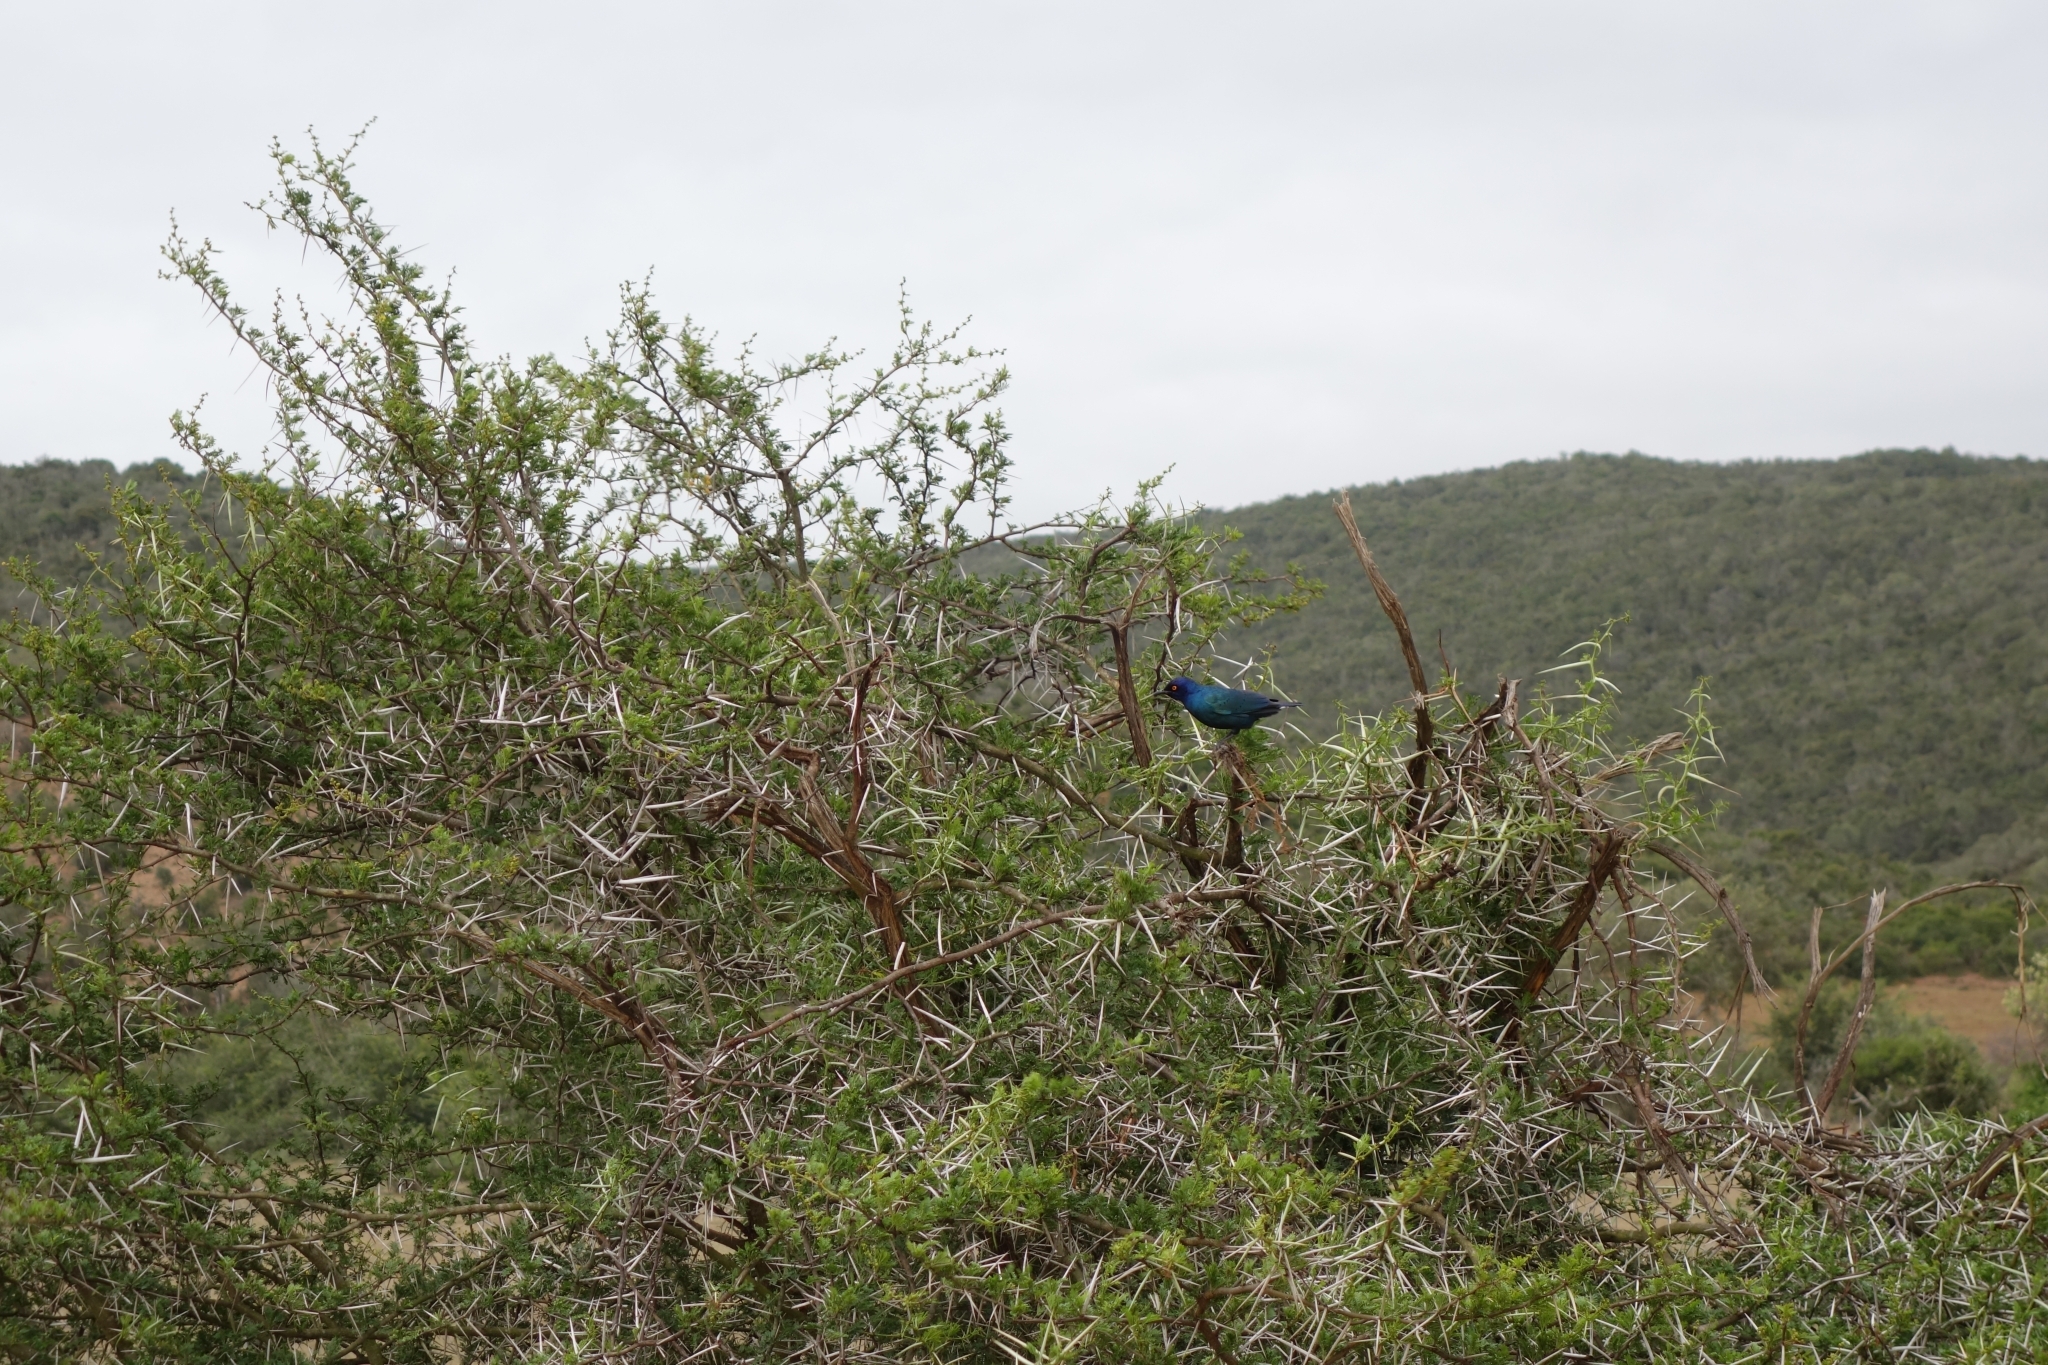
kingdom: Animalia
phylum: Chordata
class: Aves
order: Passeriformes
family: Sturnidae
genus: Lamprotornis
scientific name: Lamprotornis nitens
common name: Cape starling
